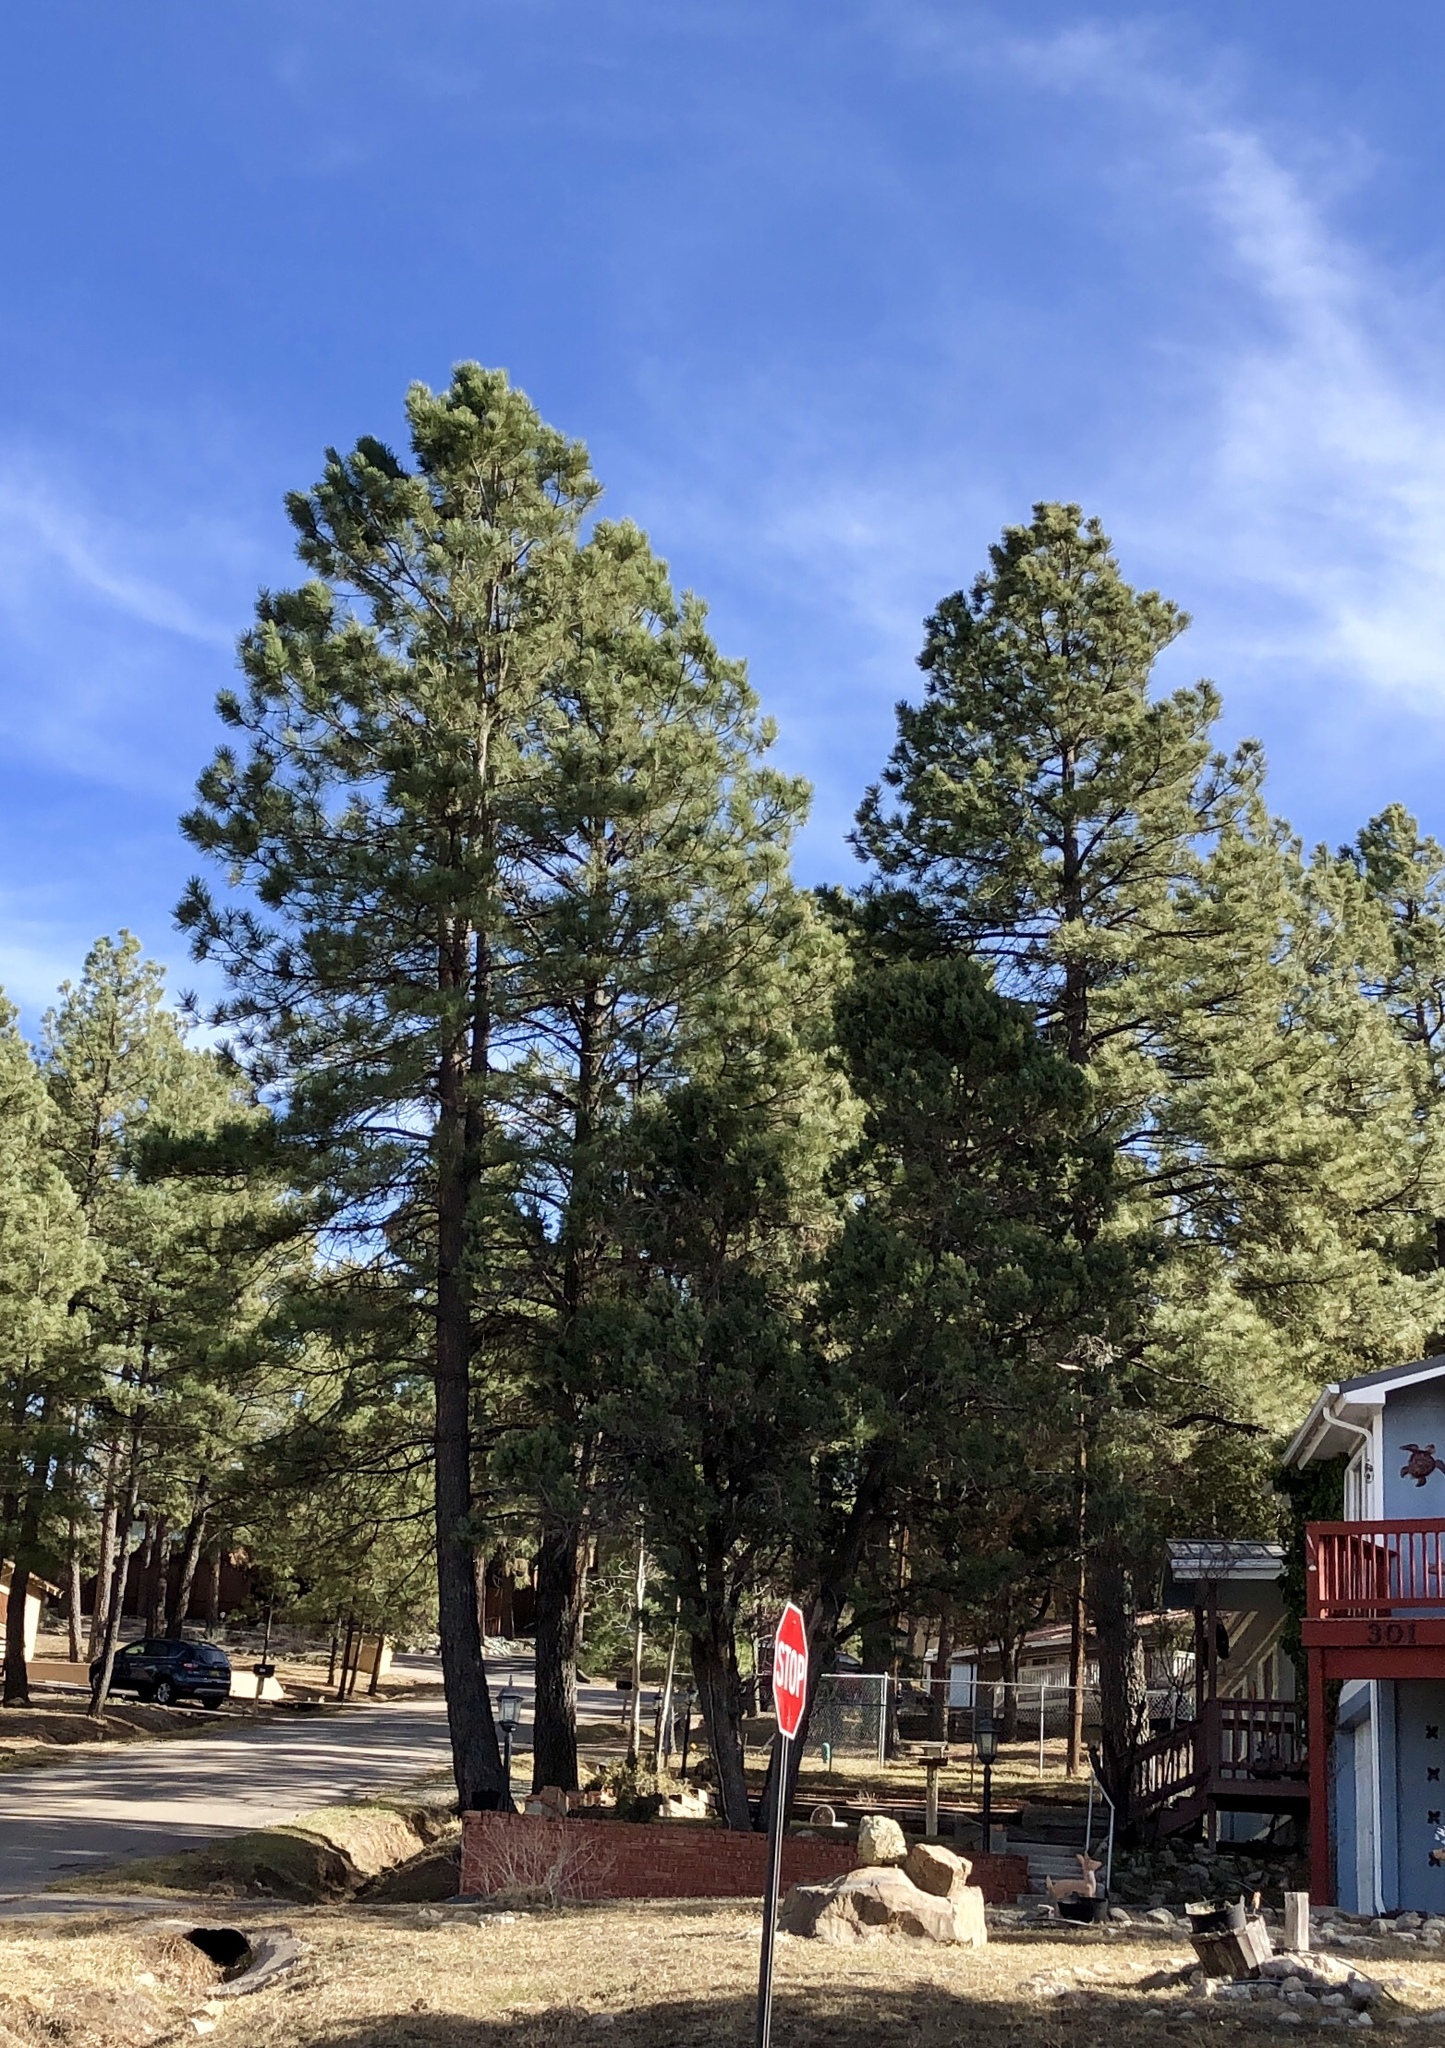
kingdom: Plantae
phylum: Tracheophyta
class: Pinopsida
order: Pinales
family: Pinaceae
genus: Pinus
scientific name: Pinus ponderosa
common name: Western yellow-pine
